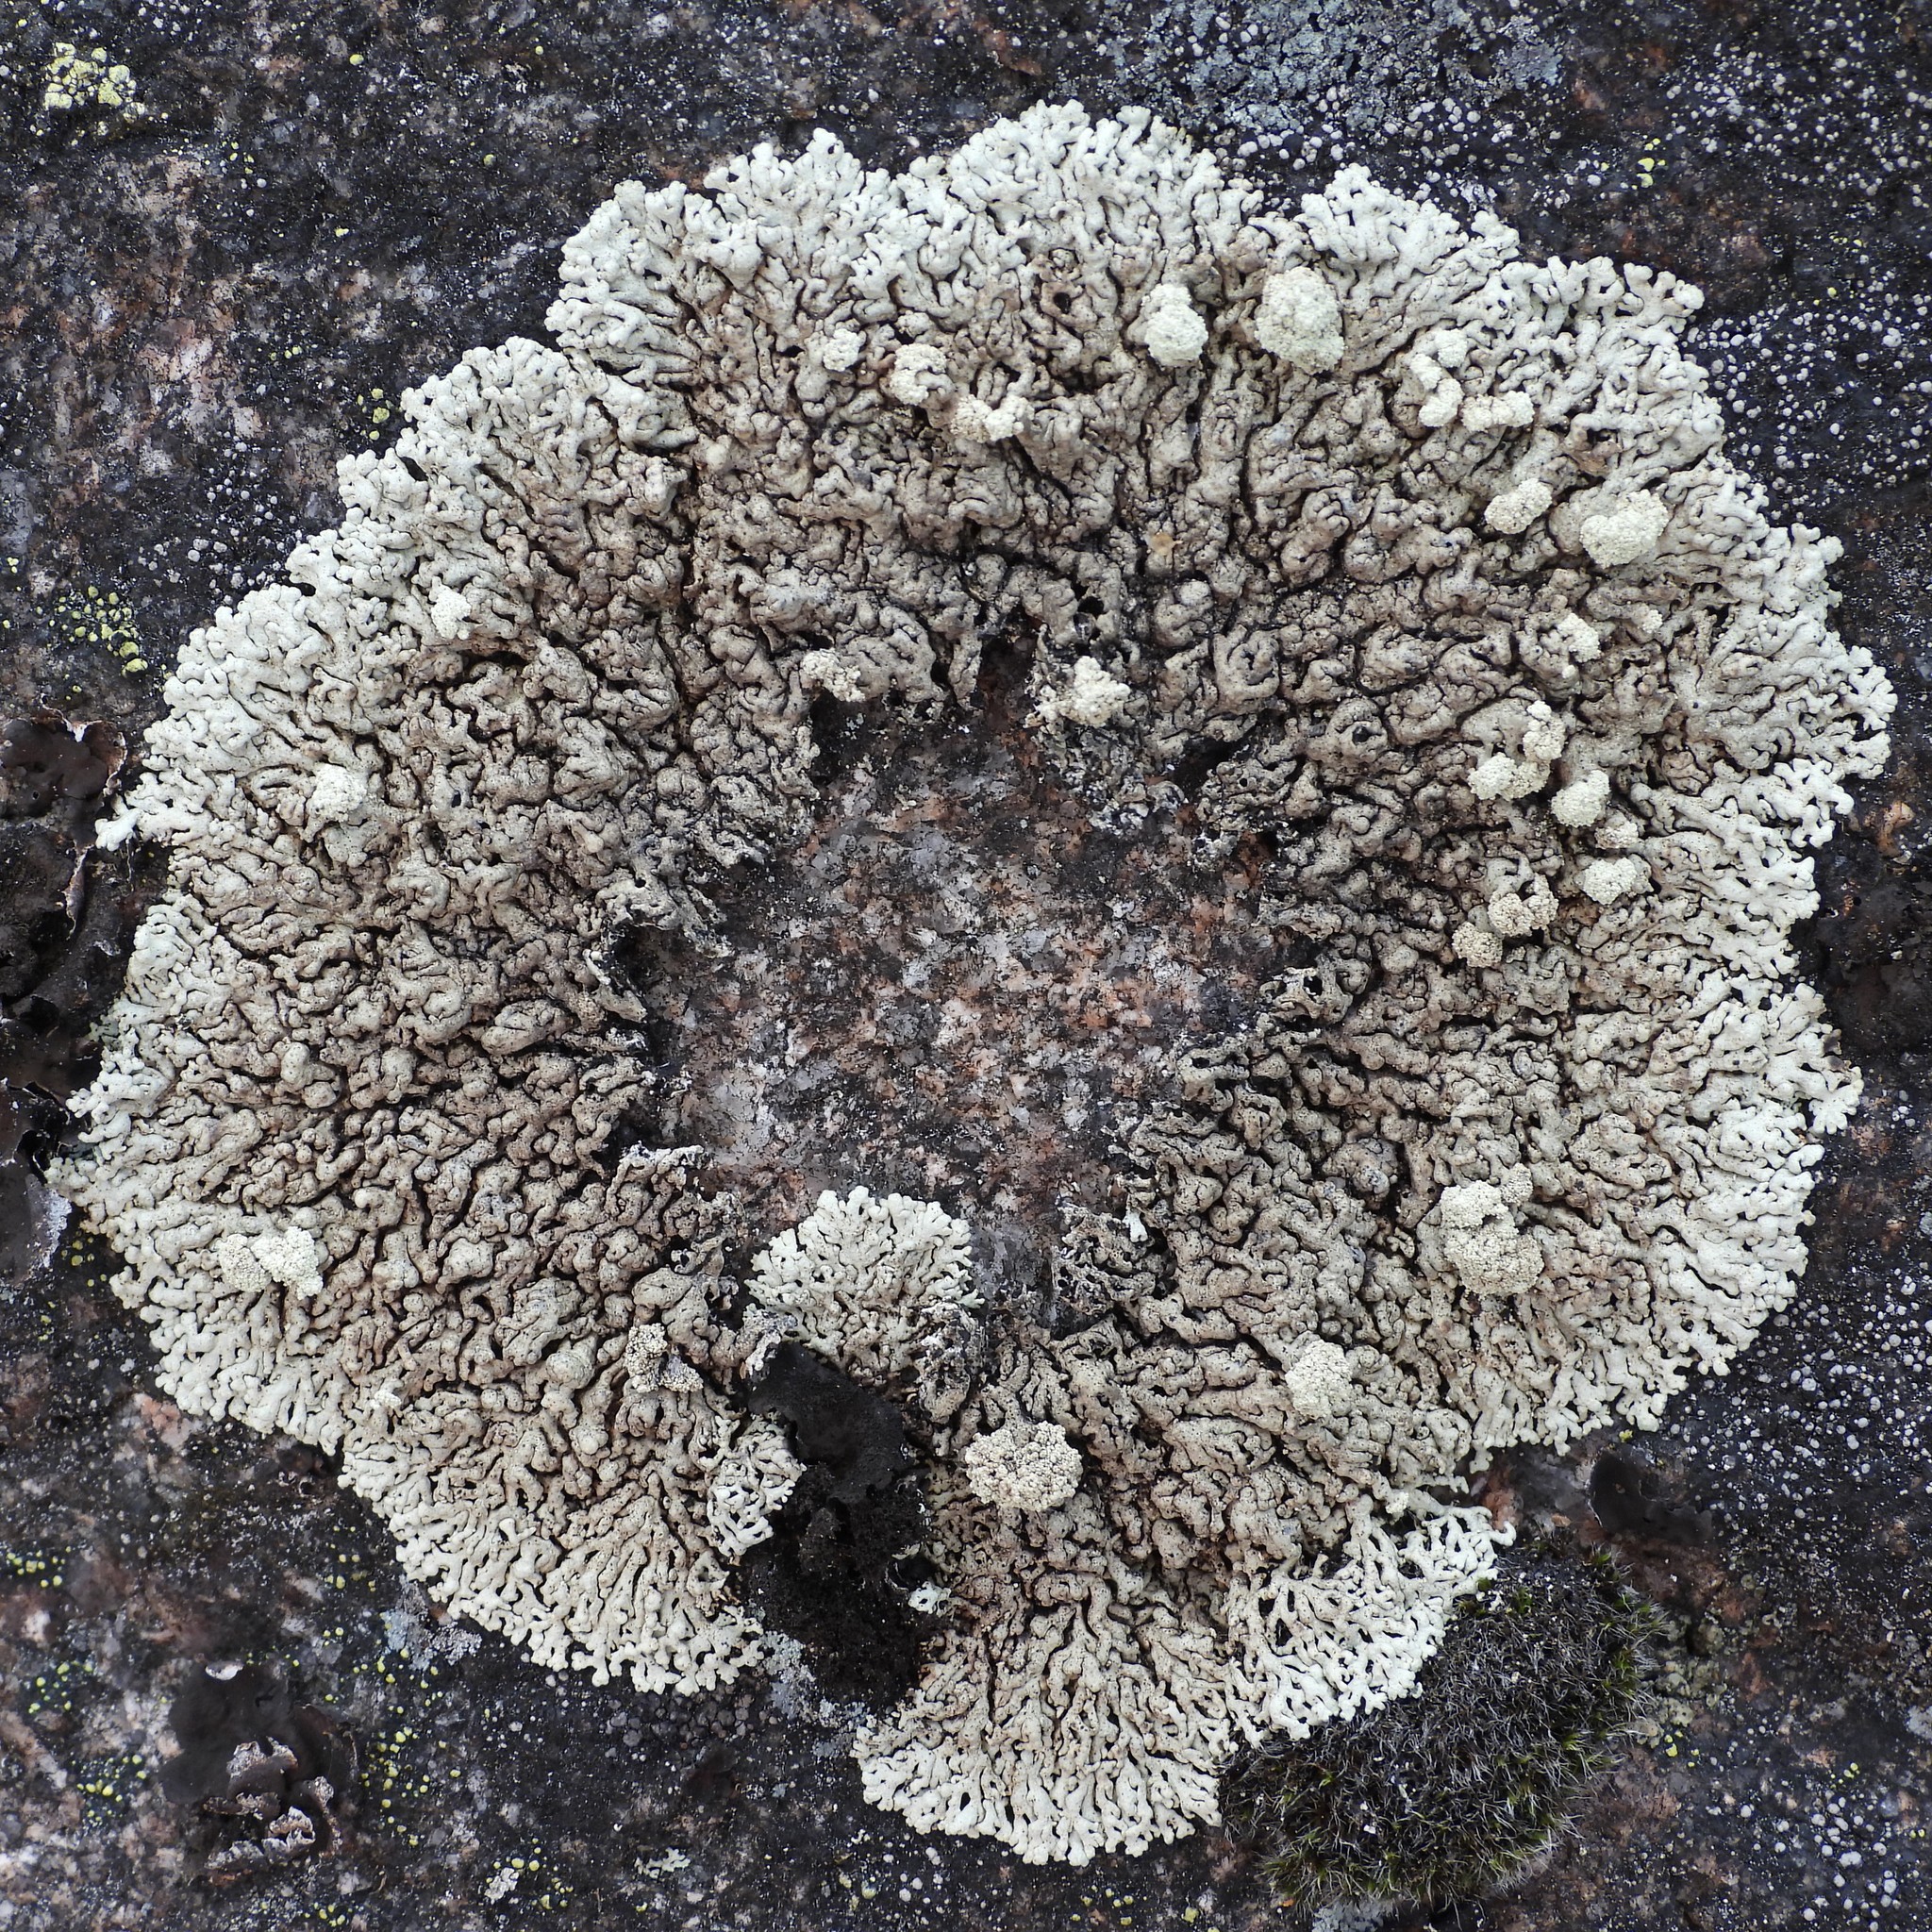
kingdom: Fungi
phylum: Ascomycota
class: Lecanoromycetes
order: Lecanorales
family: Parmeliaceae
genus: Arctoparmelia
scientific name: Arctoparmelia incurva
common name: Bent ring lichen
